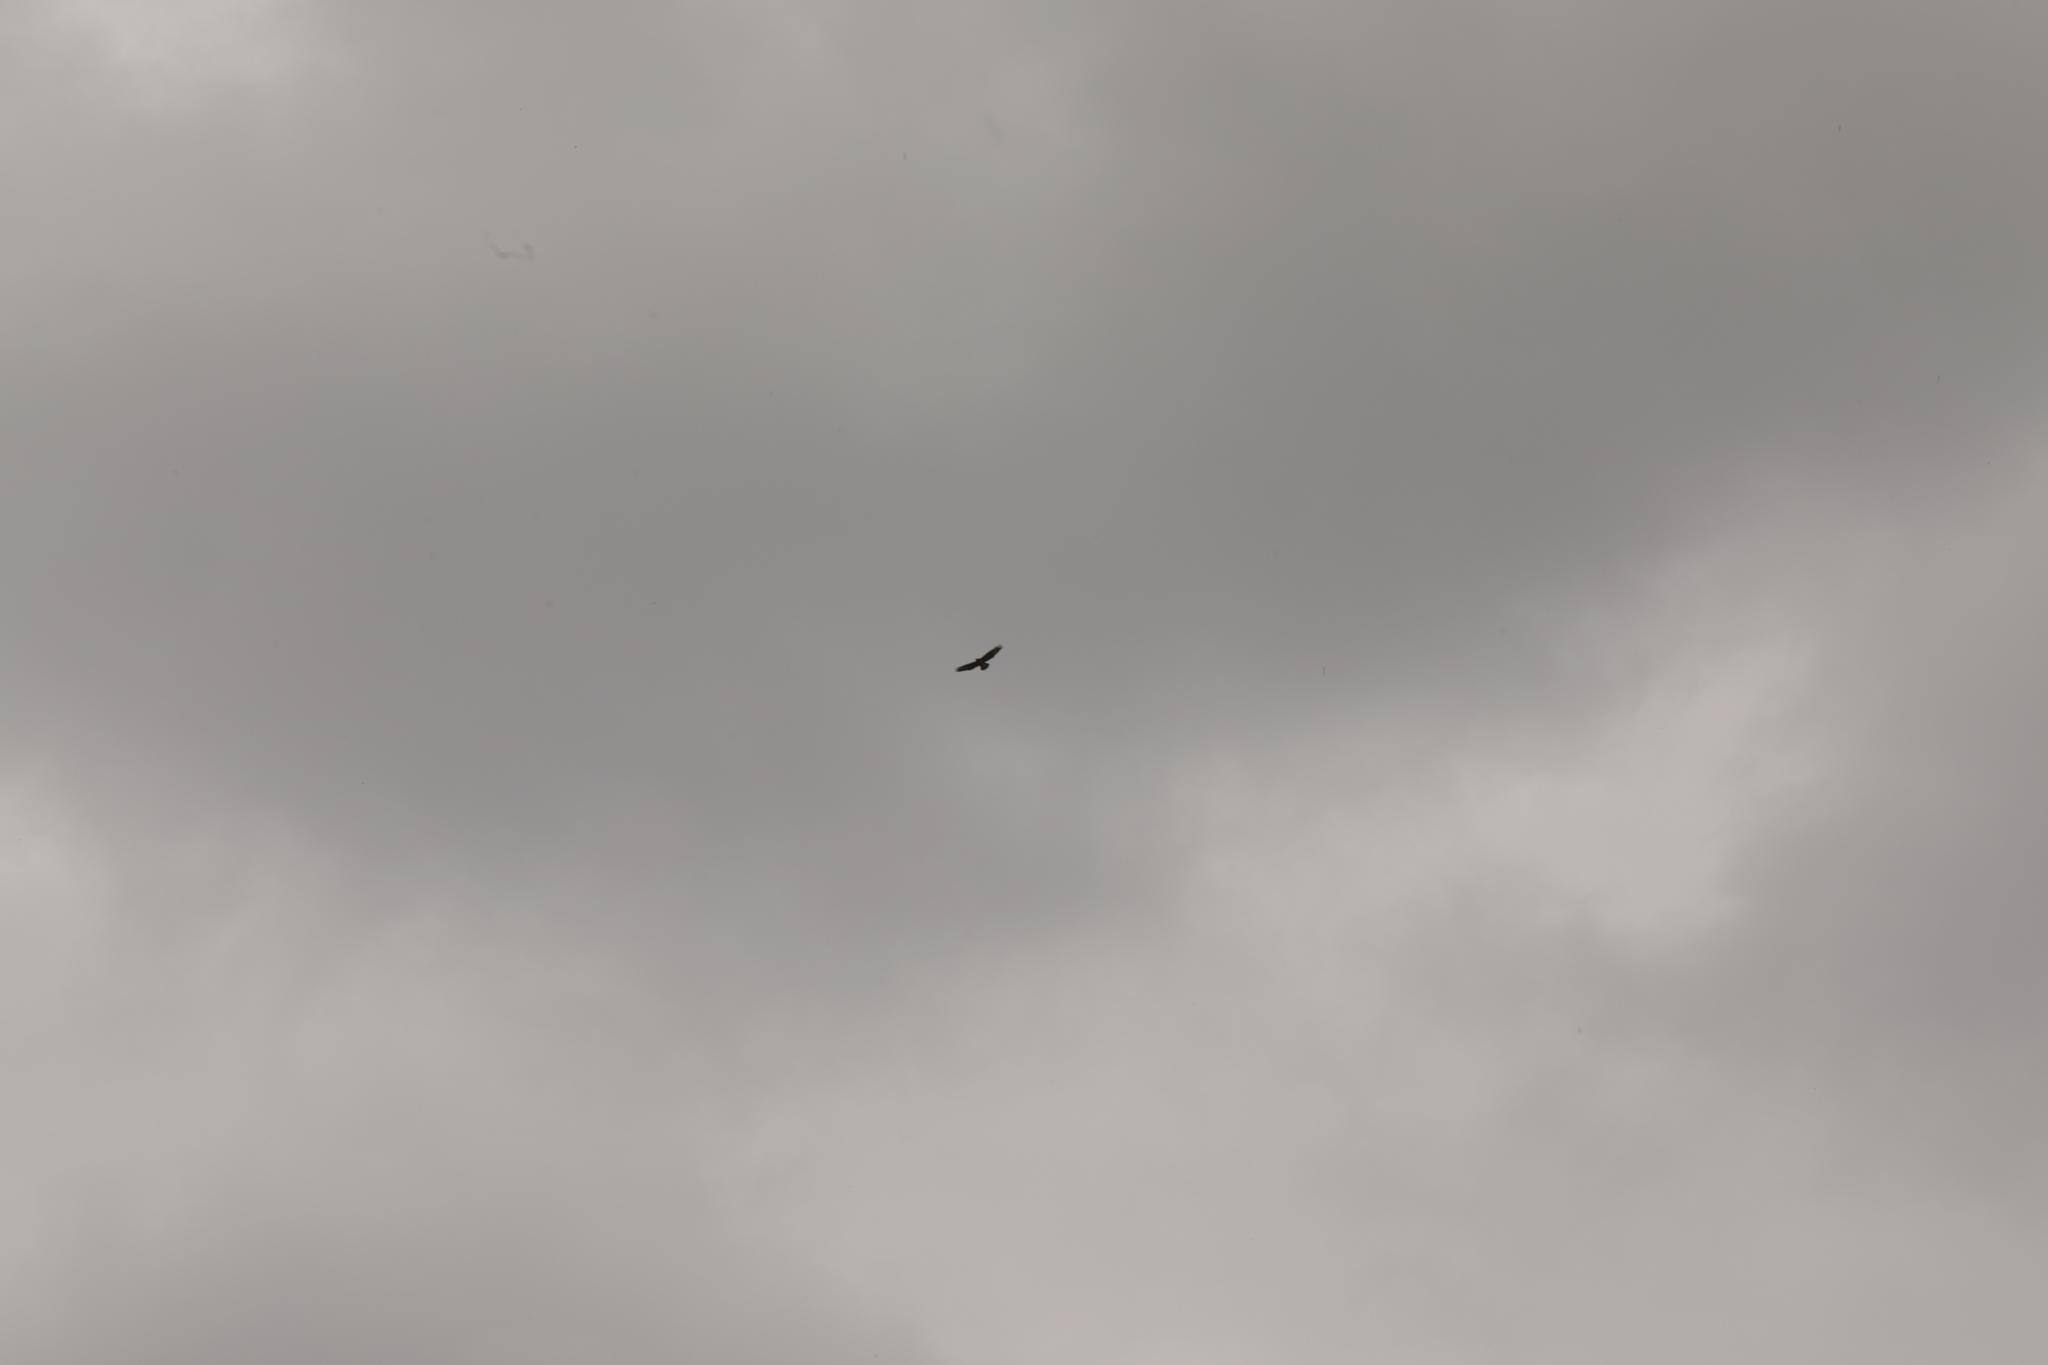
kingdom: Animalia
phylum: Chordata
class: Aves
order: Accipitriformes
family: Accipitridae
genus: Buteo
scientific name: Buteo buteo
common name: Common buzzard
